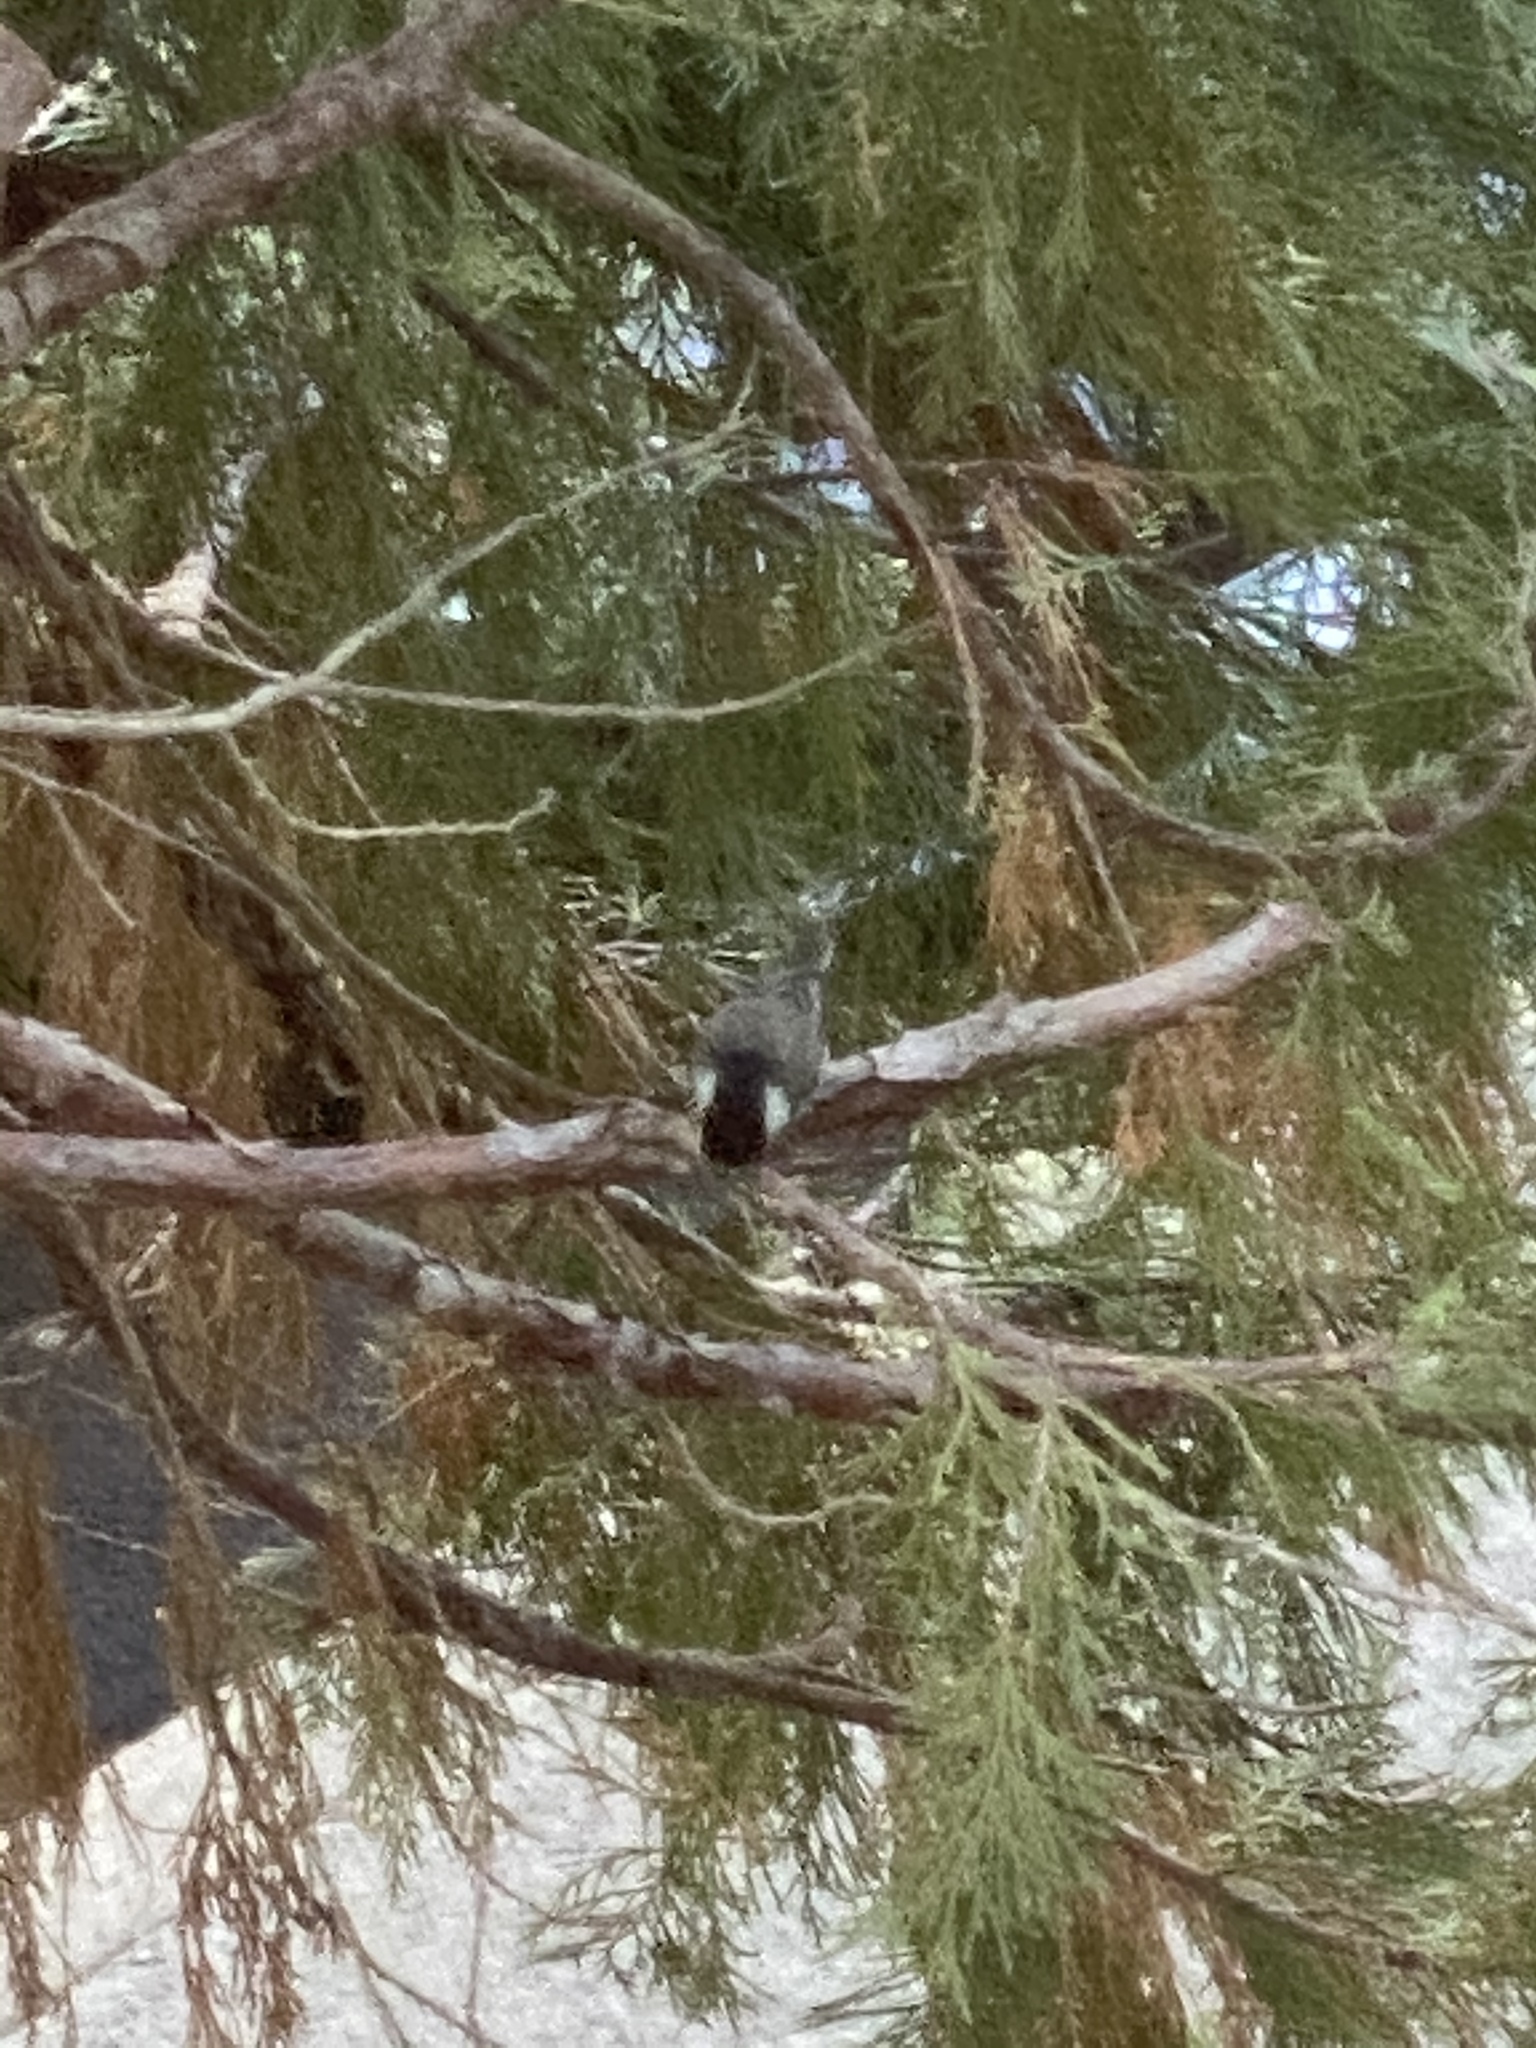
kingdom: Animalia
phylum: Chordata
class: Aves
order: Passeriformes
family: Paridae
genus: Poecile
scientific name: Poecile atricapillus
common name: Black-capped chickadee
